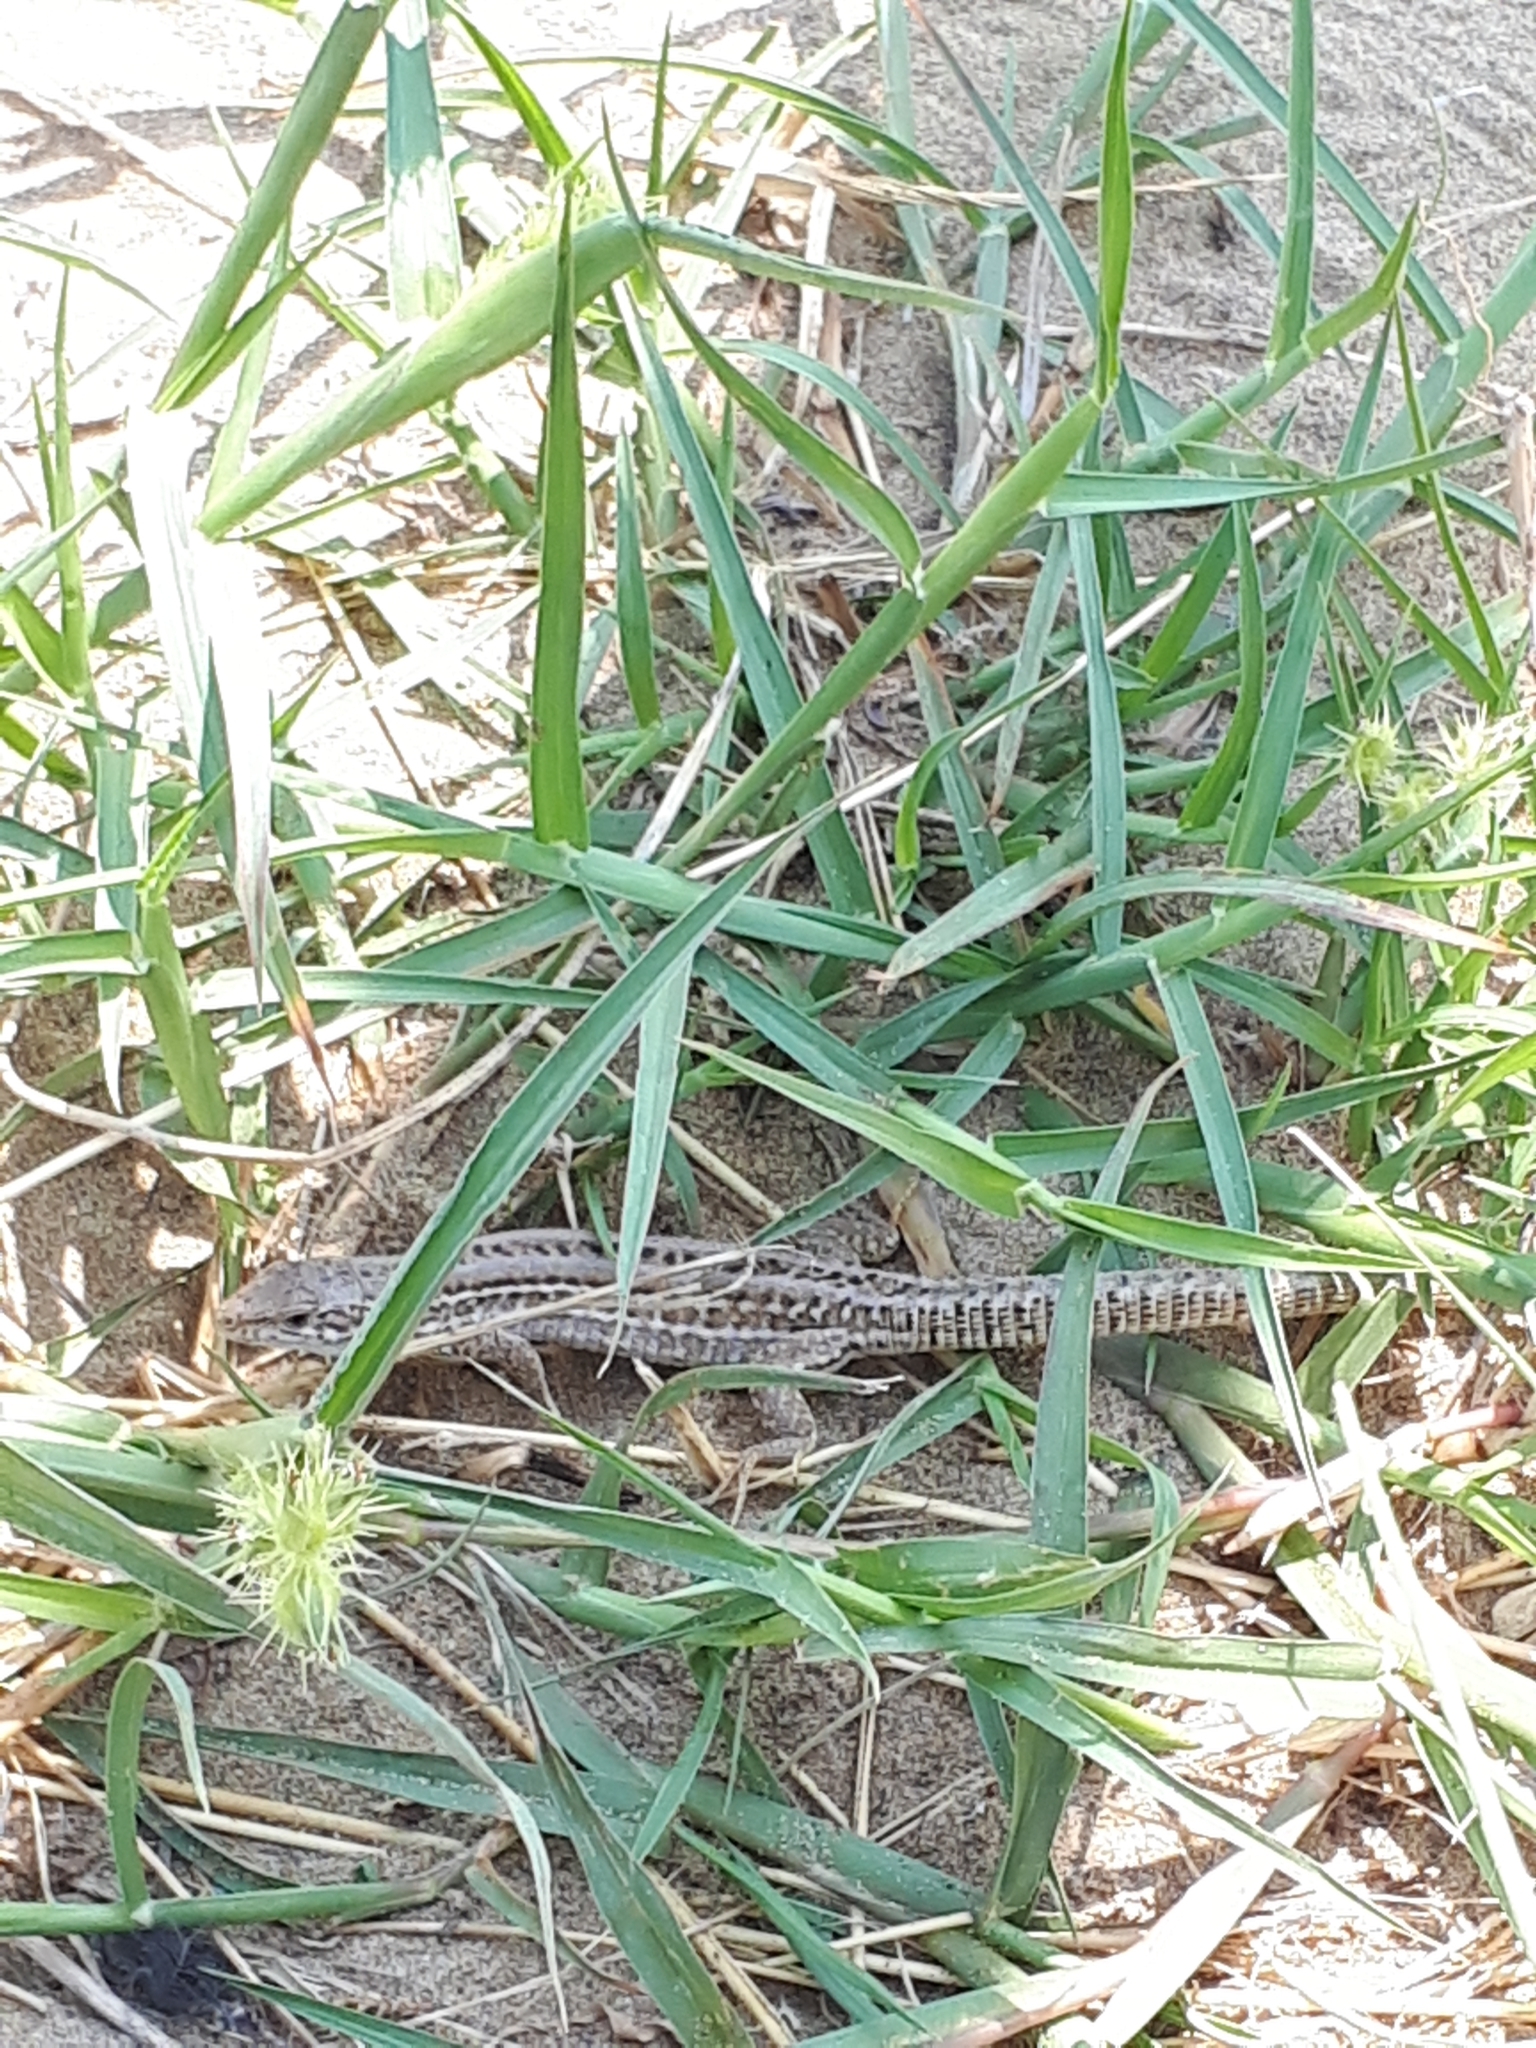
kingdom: Animalia
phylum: Chordata
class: Squamata
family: Lacertidae
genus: Podarcis
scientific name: Podarcis siculus
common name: Italian wall lizard
